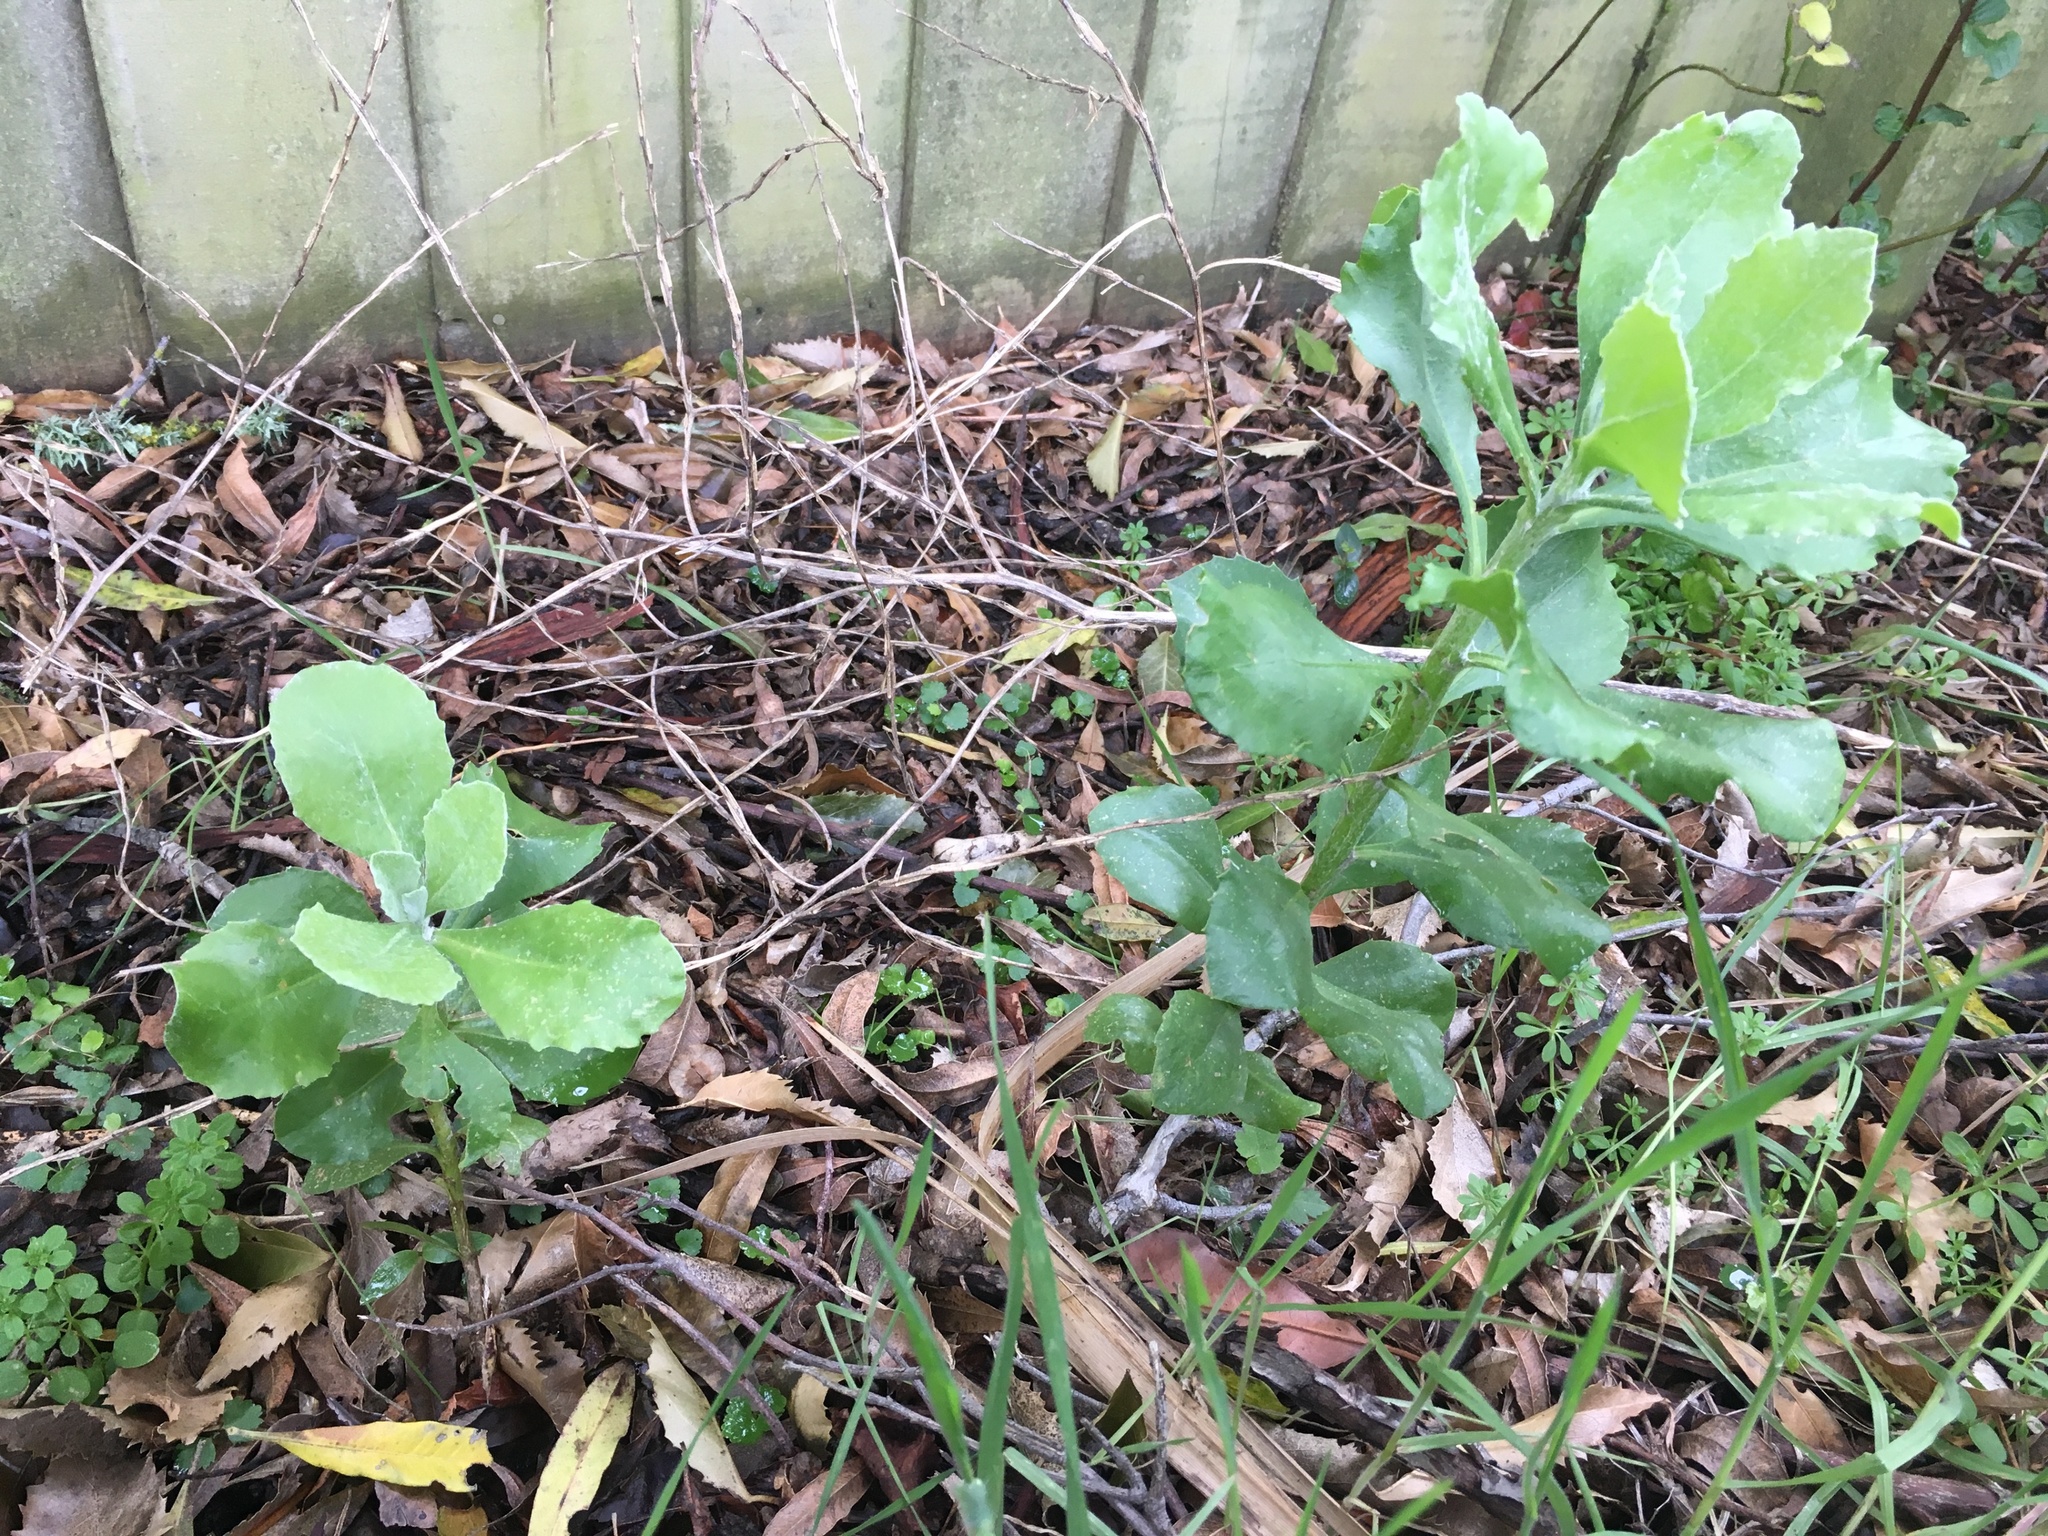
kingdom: Plantae
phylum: Tracheophyta
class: Magnoliopsida
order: Asterales
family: Asteraceae
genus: Osteospermum
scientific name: Osteospermum moniliferum
